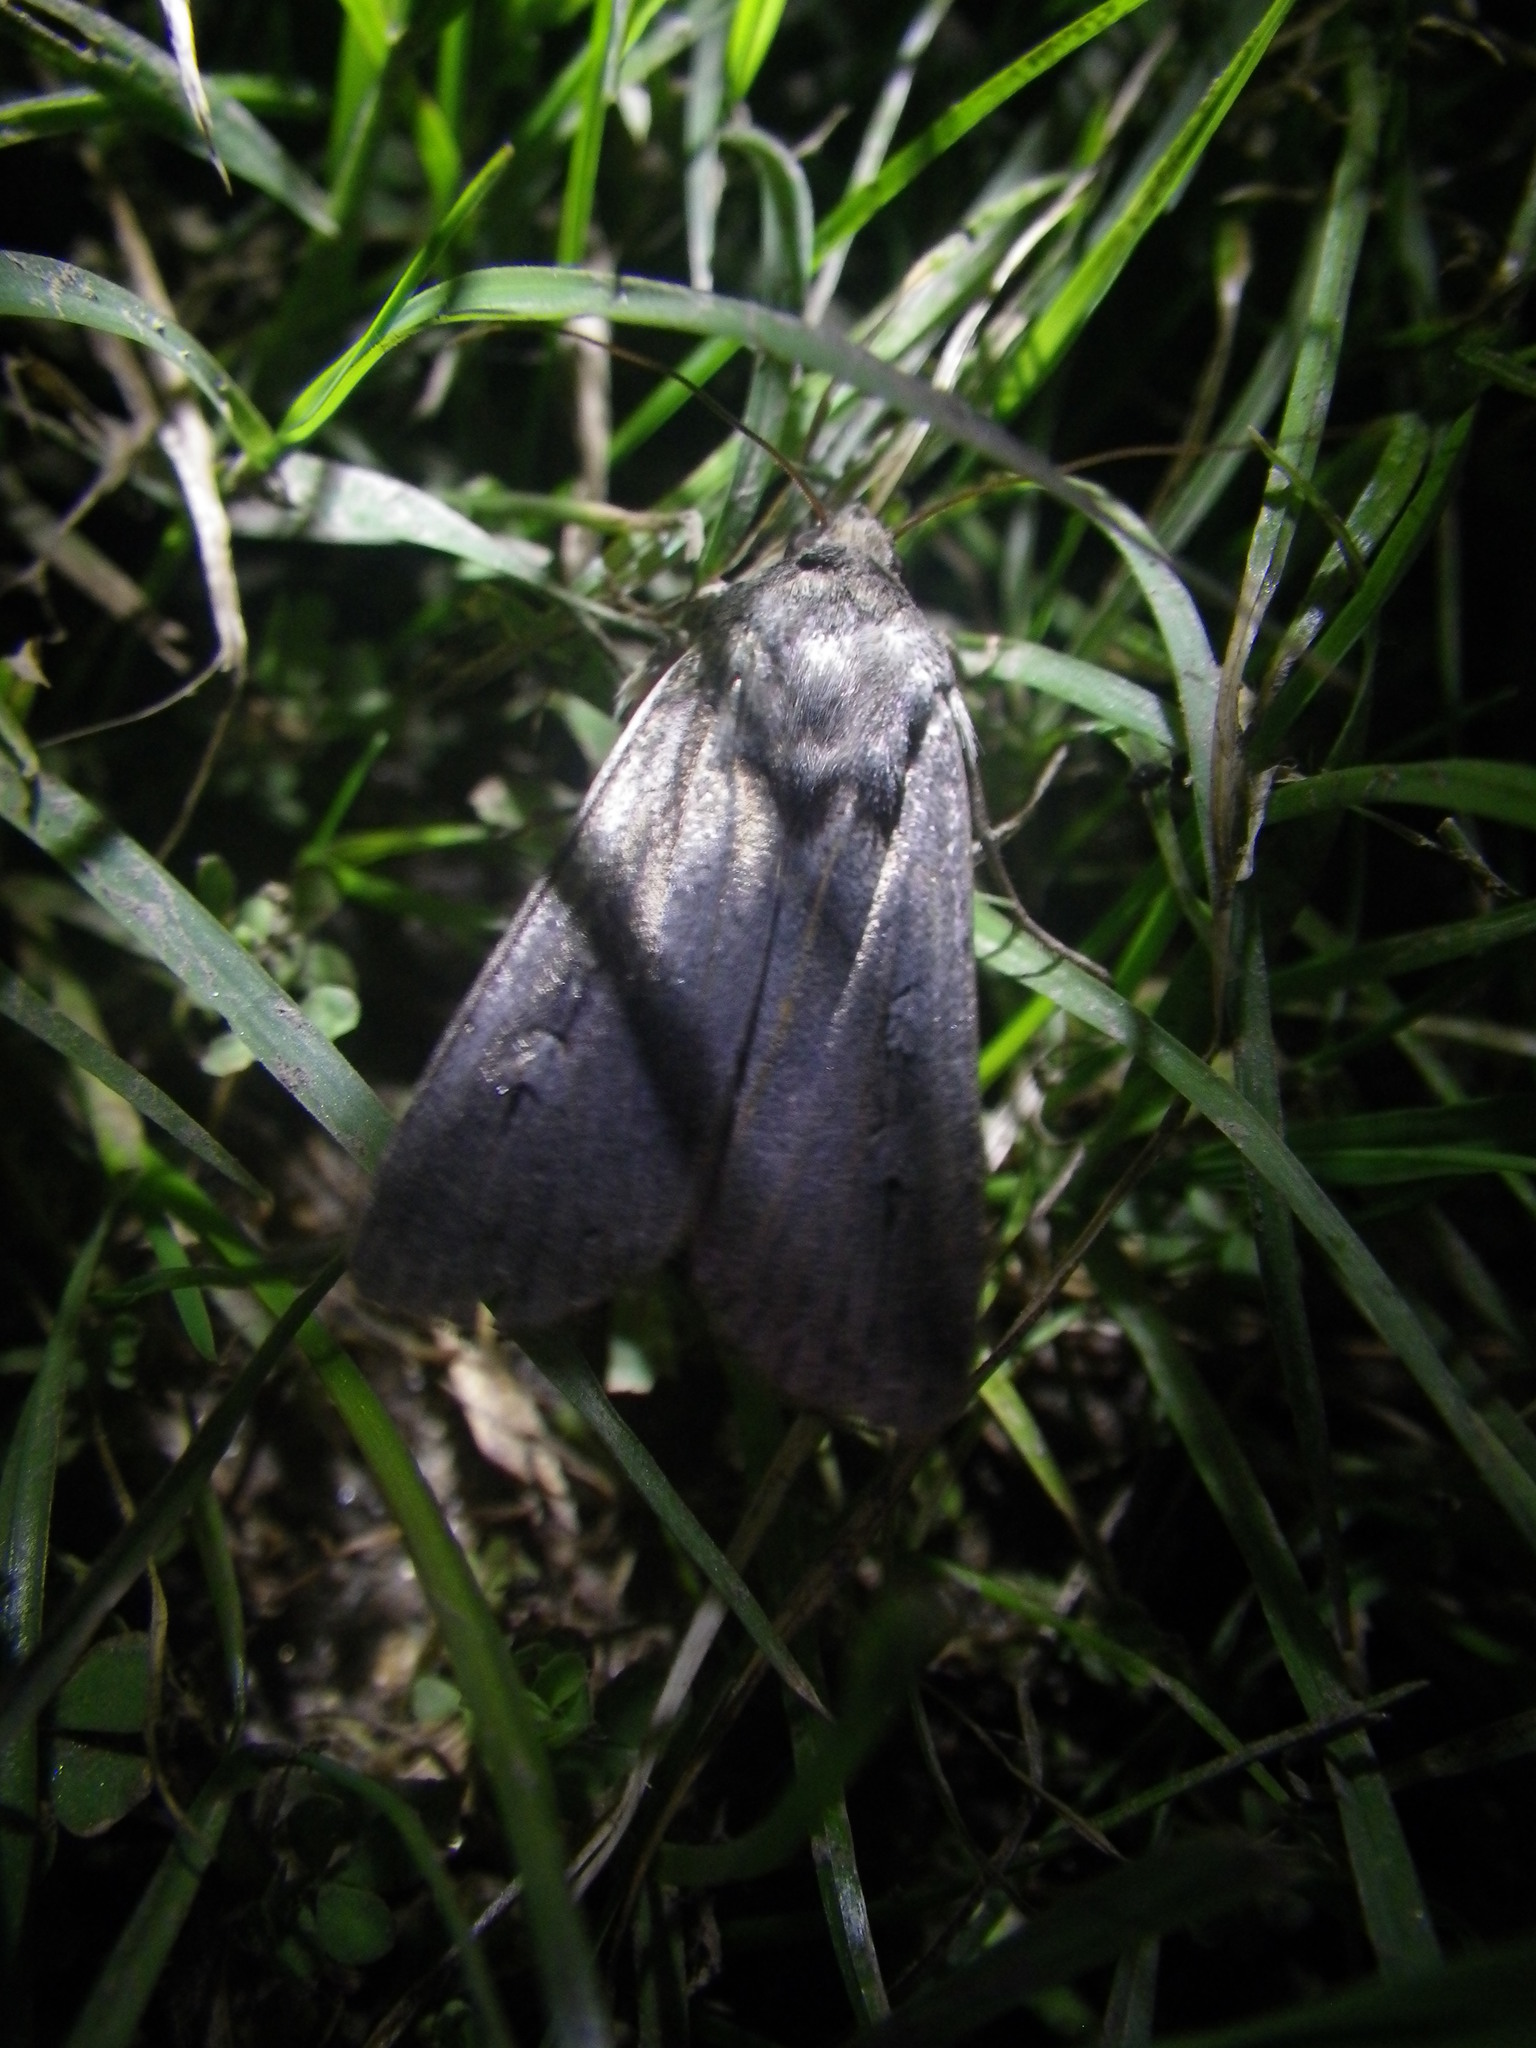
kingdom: Animalia
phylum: Arthropoda
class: Insecta
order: Lepidoptera
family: Noctuidae
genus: Agrotis
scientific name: Agrotis infusa
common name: Bogong moth
